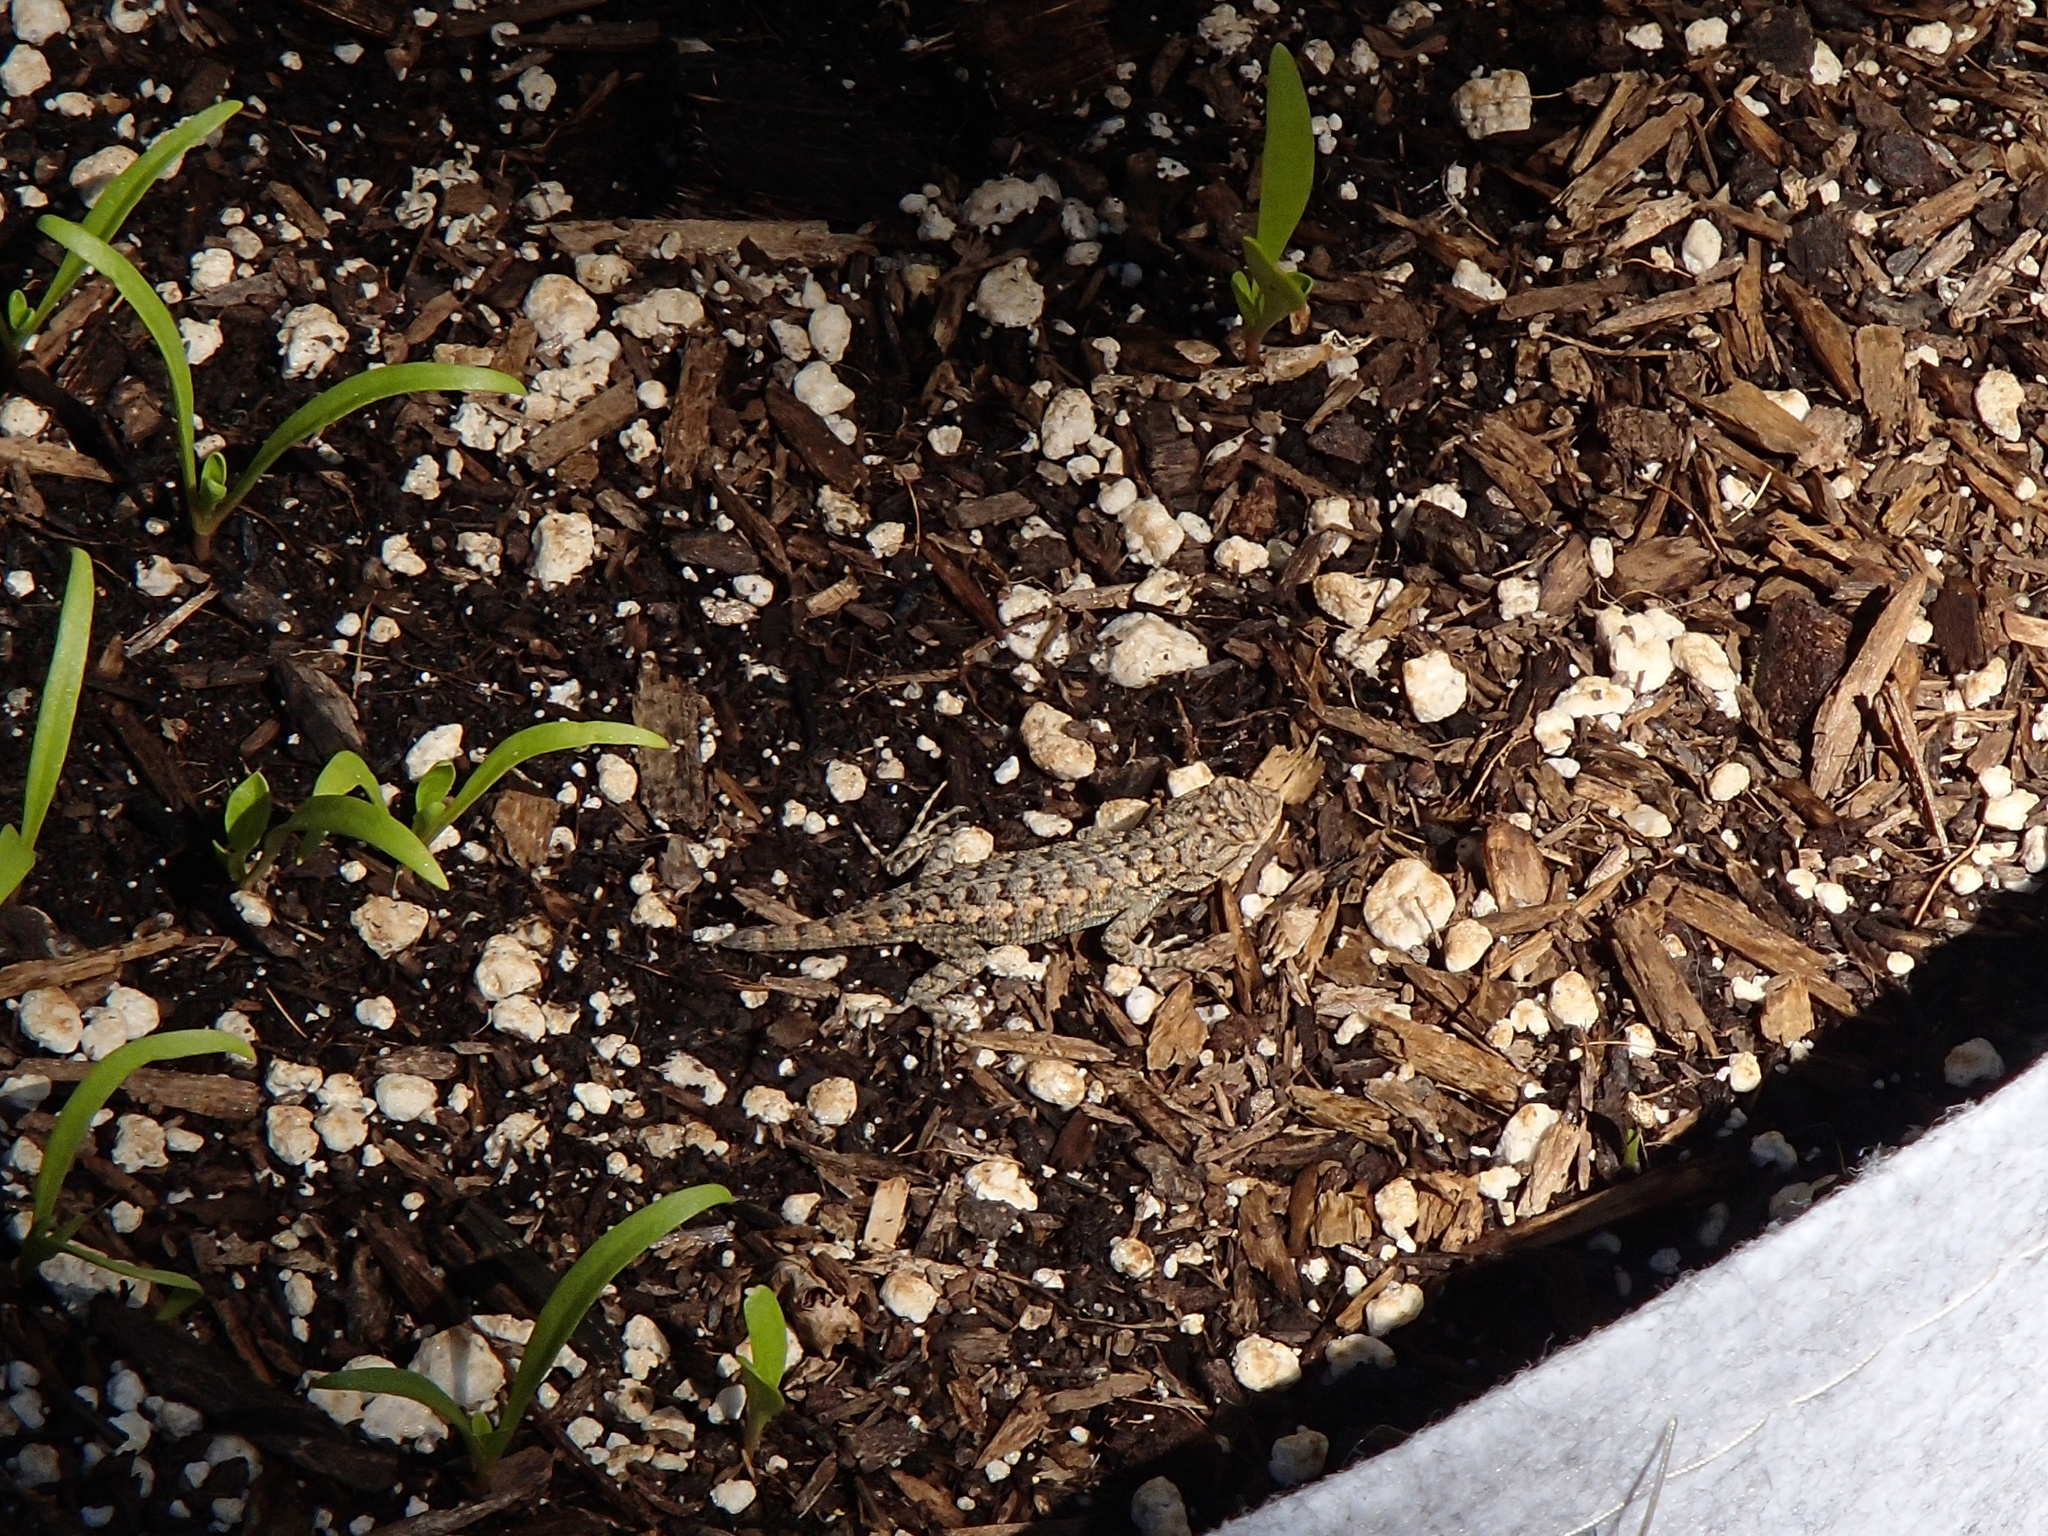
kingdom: Animalia
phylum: Chordata
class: Squamata
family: Phrynosomatidae
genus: Sceloporus
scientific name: Sceloporus occidentalis
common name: Western fence lizard
